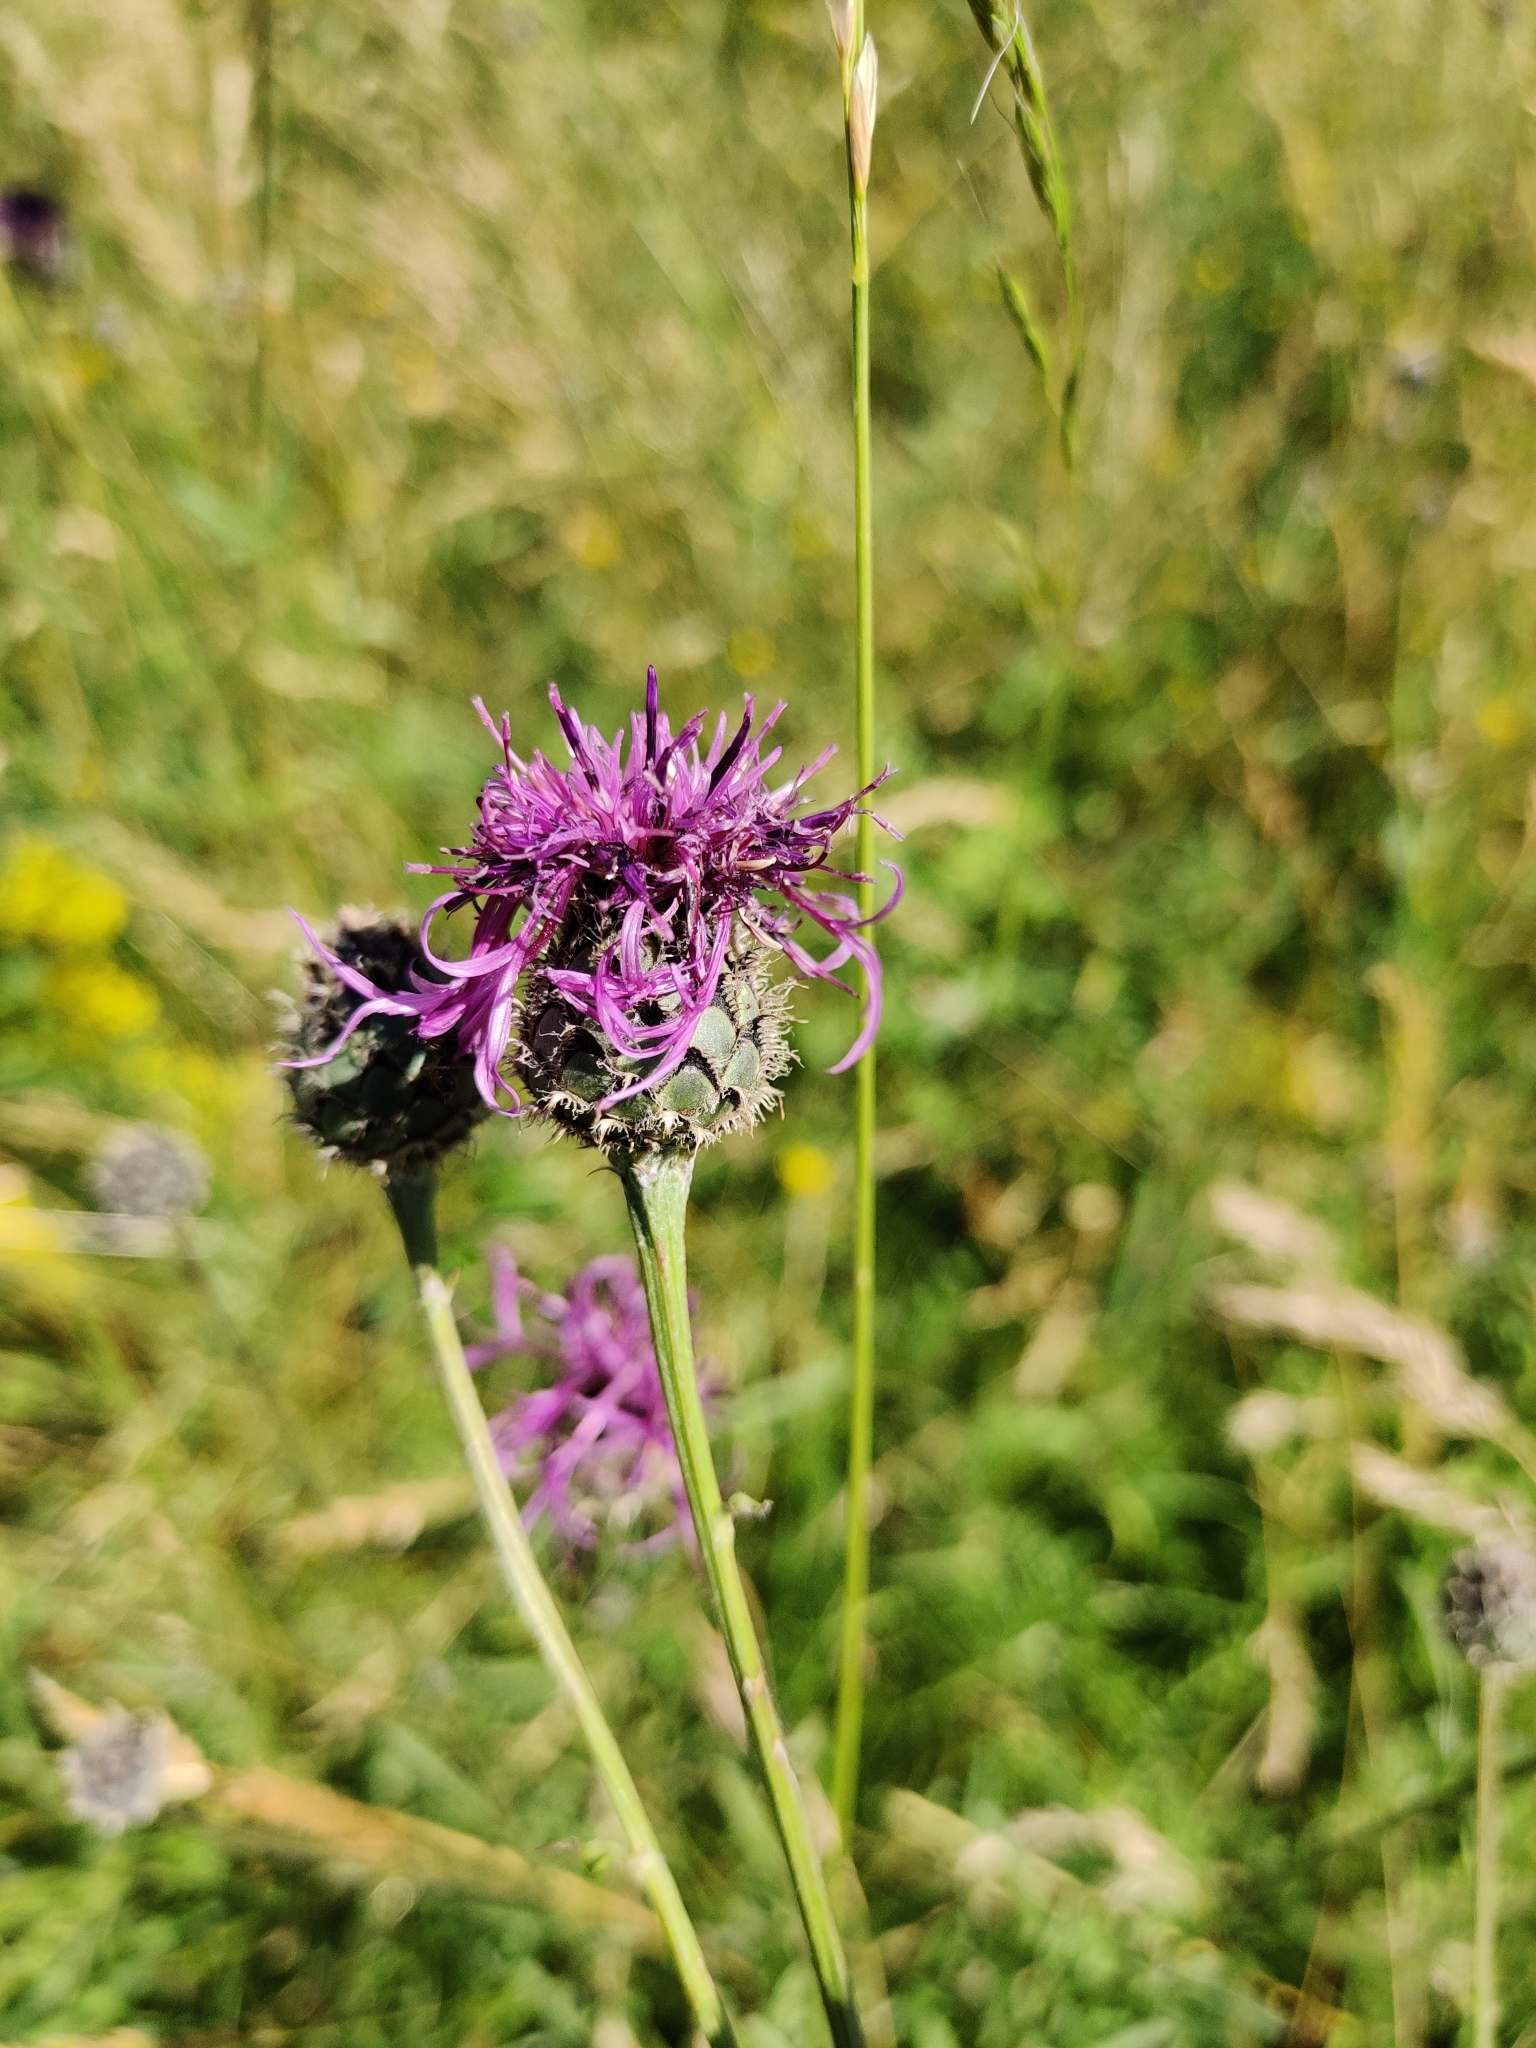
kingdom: Plantae
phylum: Tracheophyta
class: Magnoliopsida
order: Asterales
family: Asteraceae
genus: Centaurea
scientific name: Centaurea scabiosa
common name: Greater knapweed
